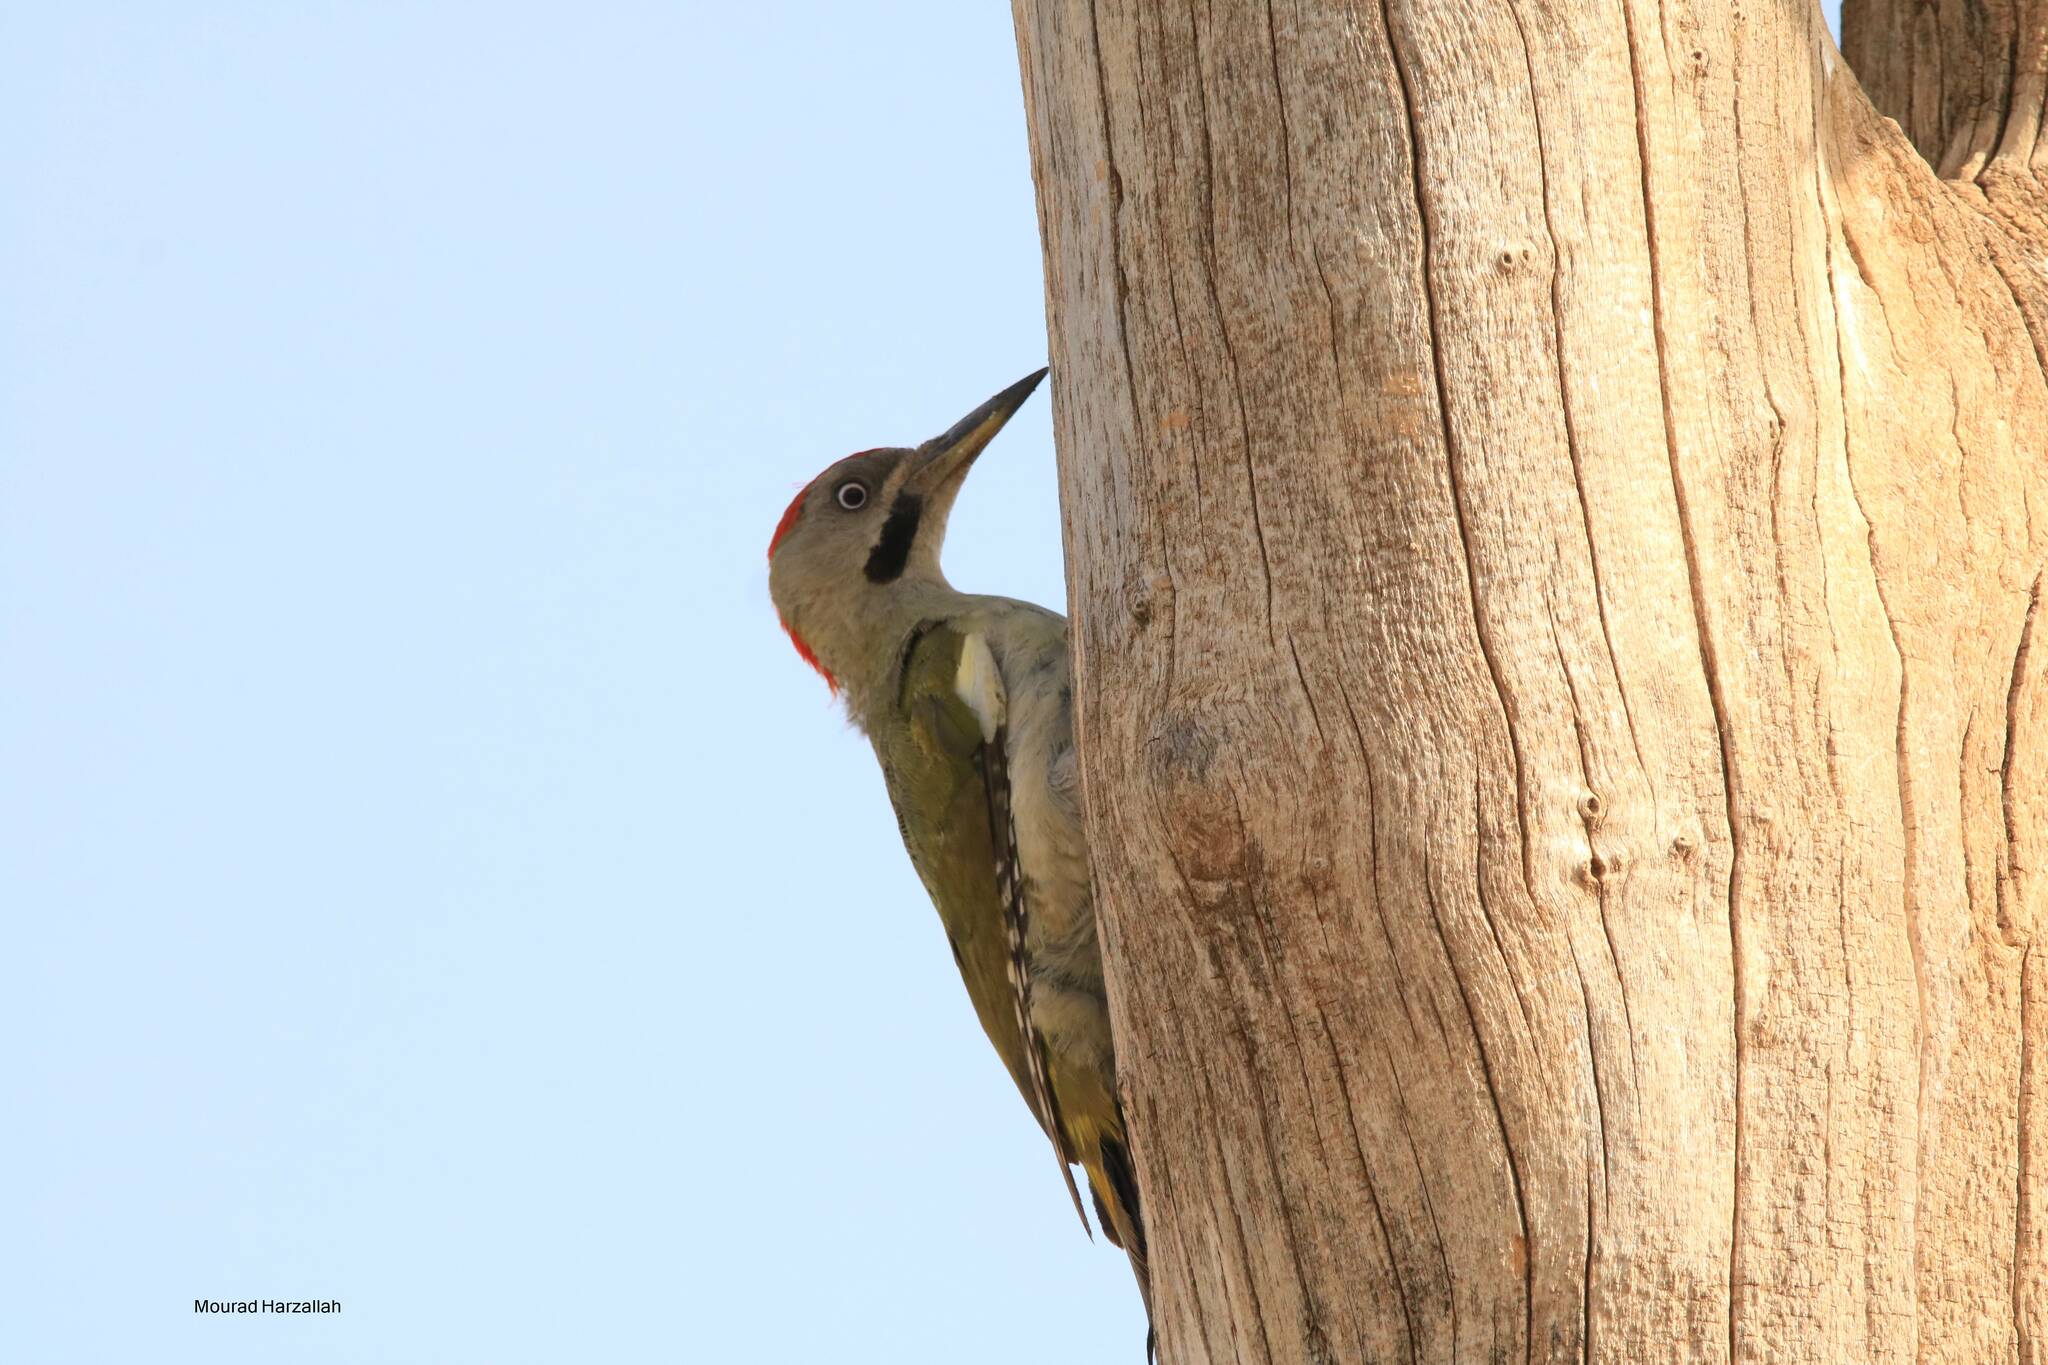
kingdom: Animalia
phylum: Chordata
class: Aves
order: Piciformes
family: Picidae
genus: Picus
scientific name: Picus vaillantii
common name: Levaillant's woodpecker
